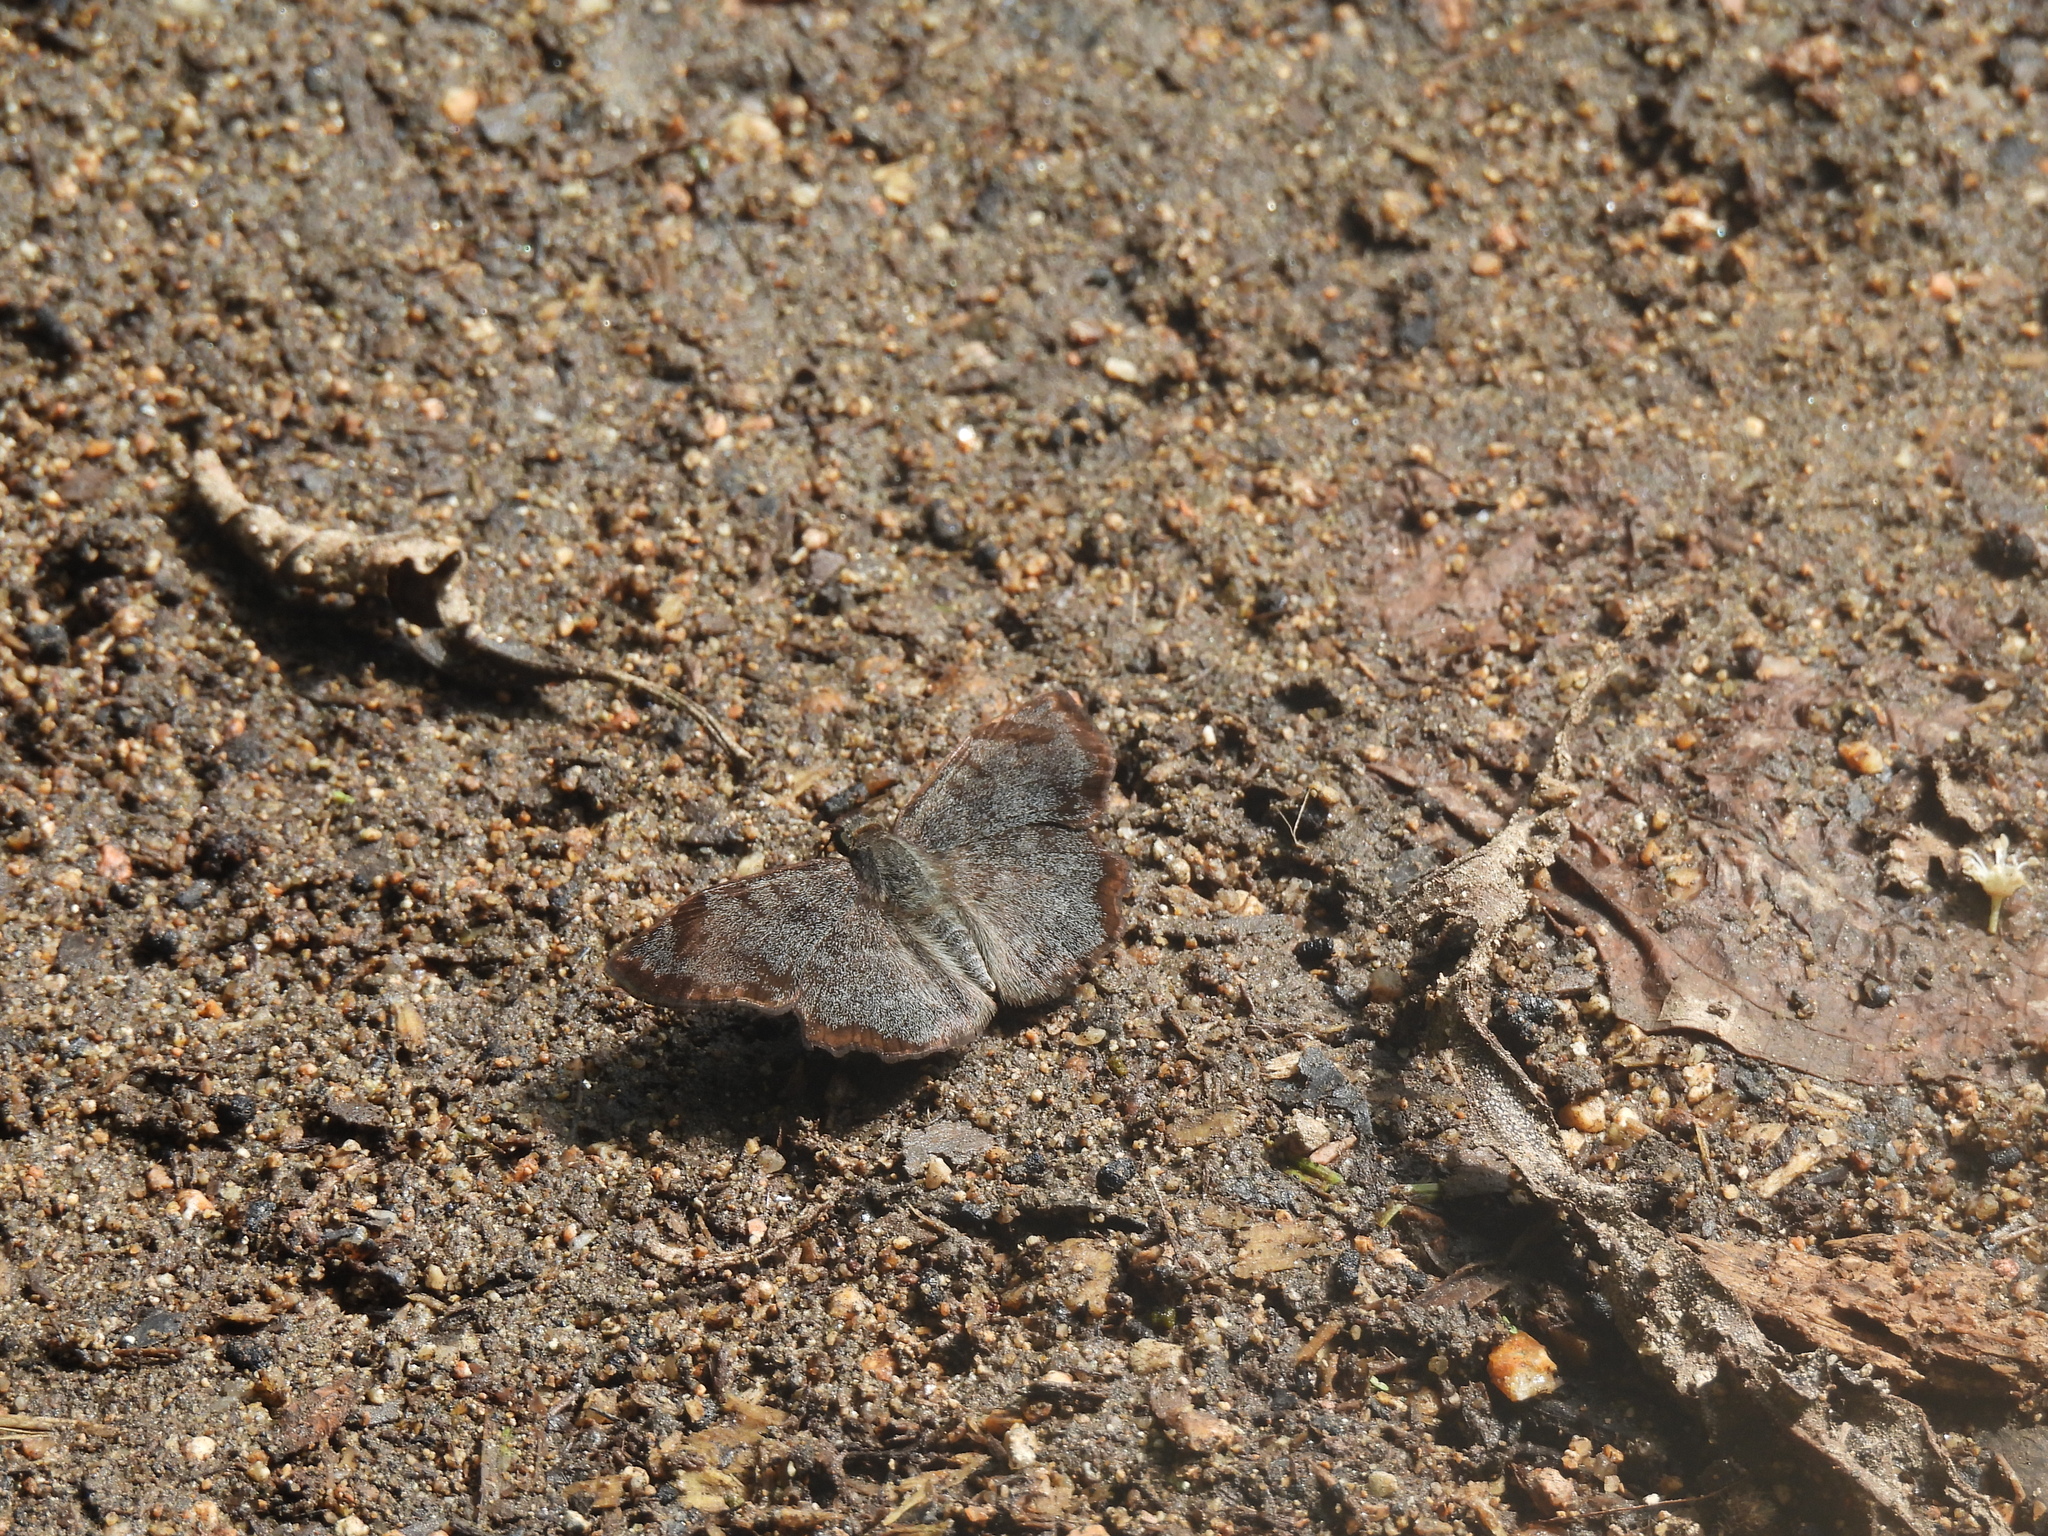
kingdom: Animalia
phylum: Arthropoda
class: Insecta
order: Lepidoptera
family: Hesperiidae
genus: Antigonus
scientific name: Antigonus erosus
